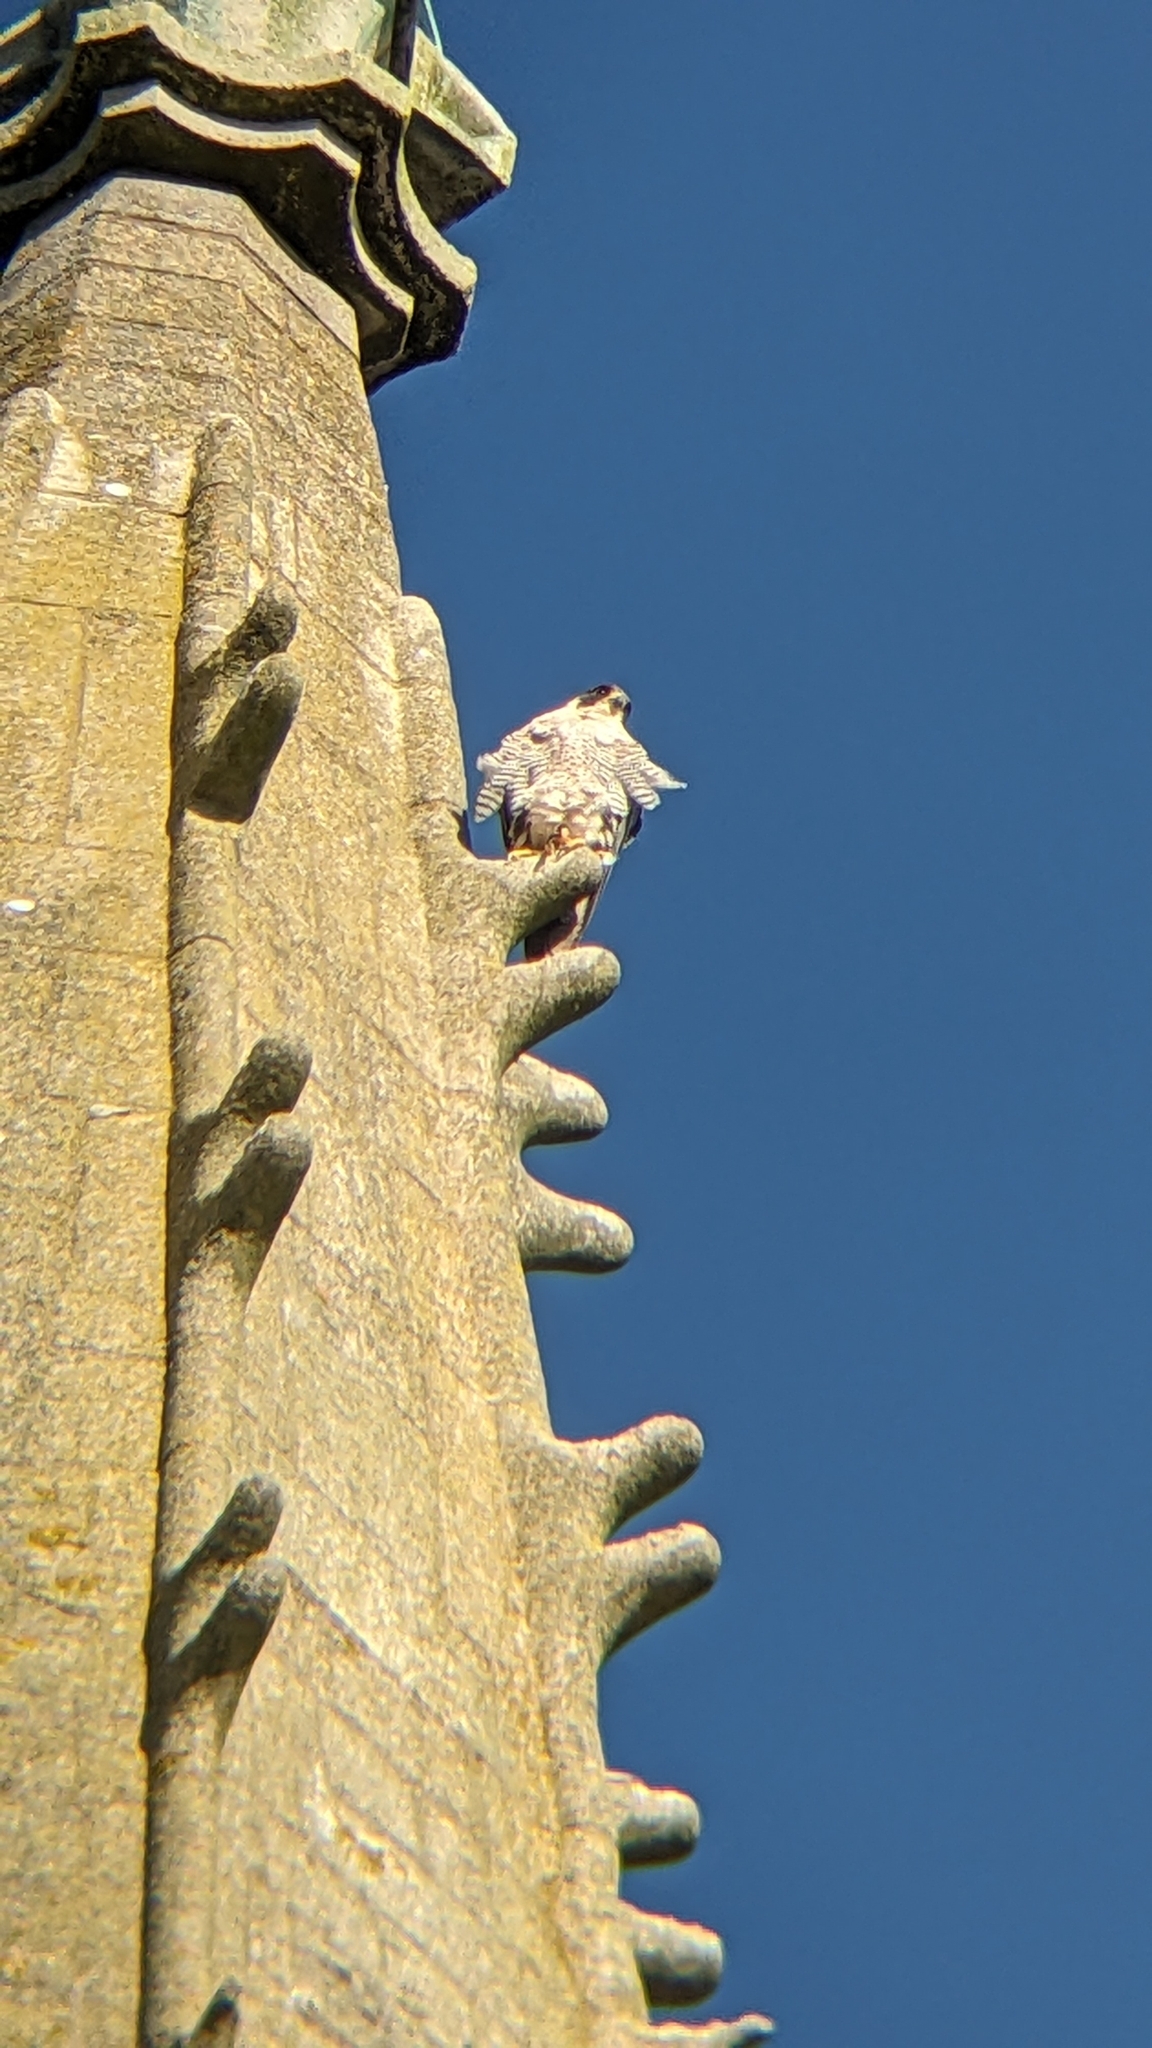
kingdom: Animalia
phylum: Chordata
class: Aves
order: Falconiformes
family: Falconidae
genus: Falco
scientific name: Falco peregrinus
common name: Peregrine falcon
